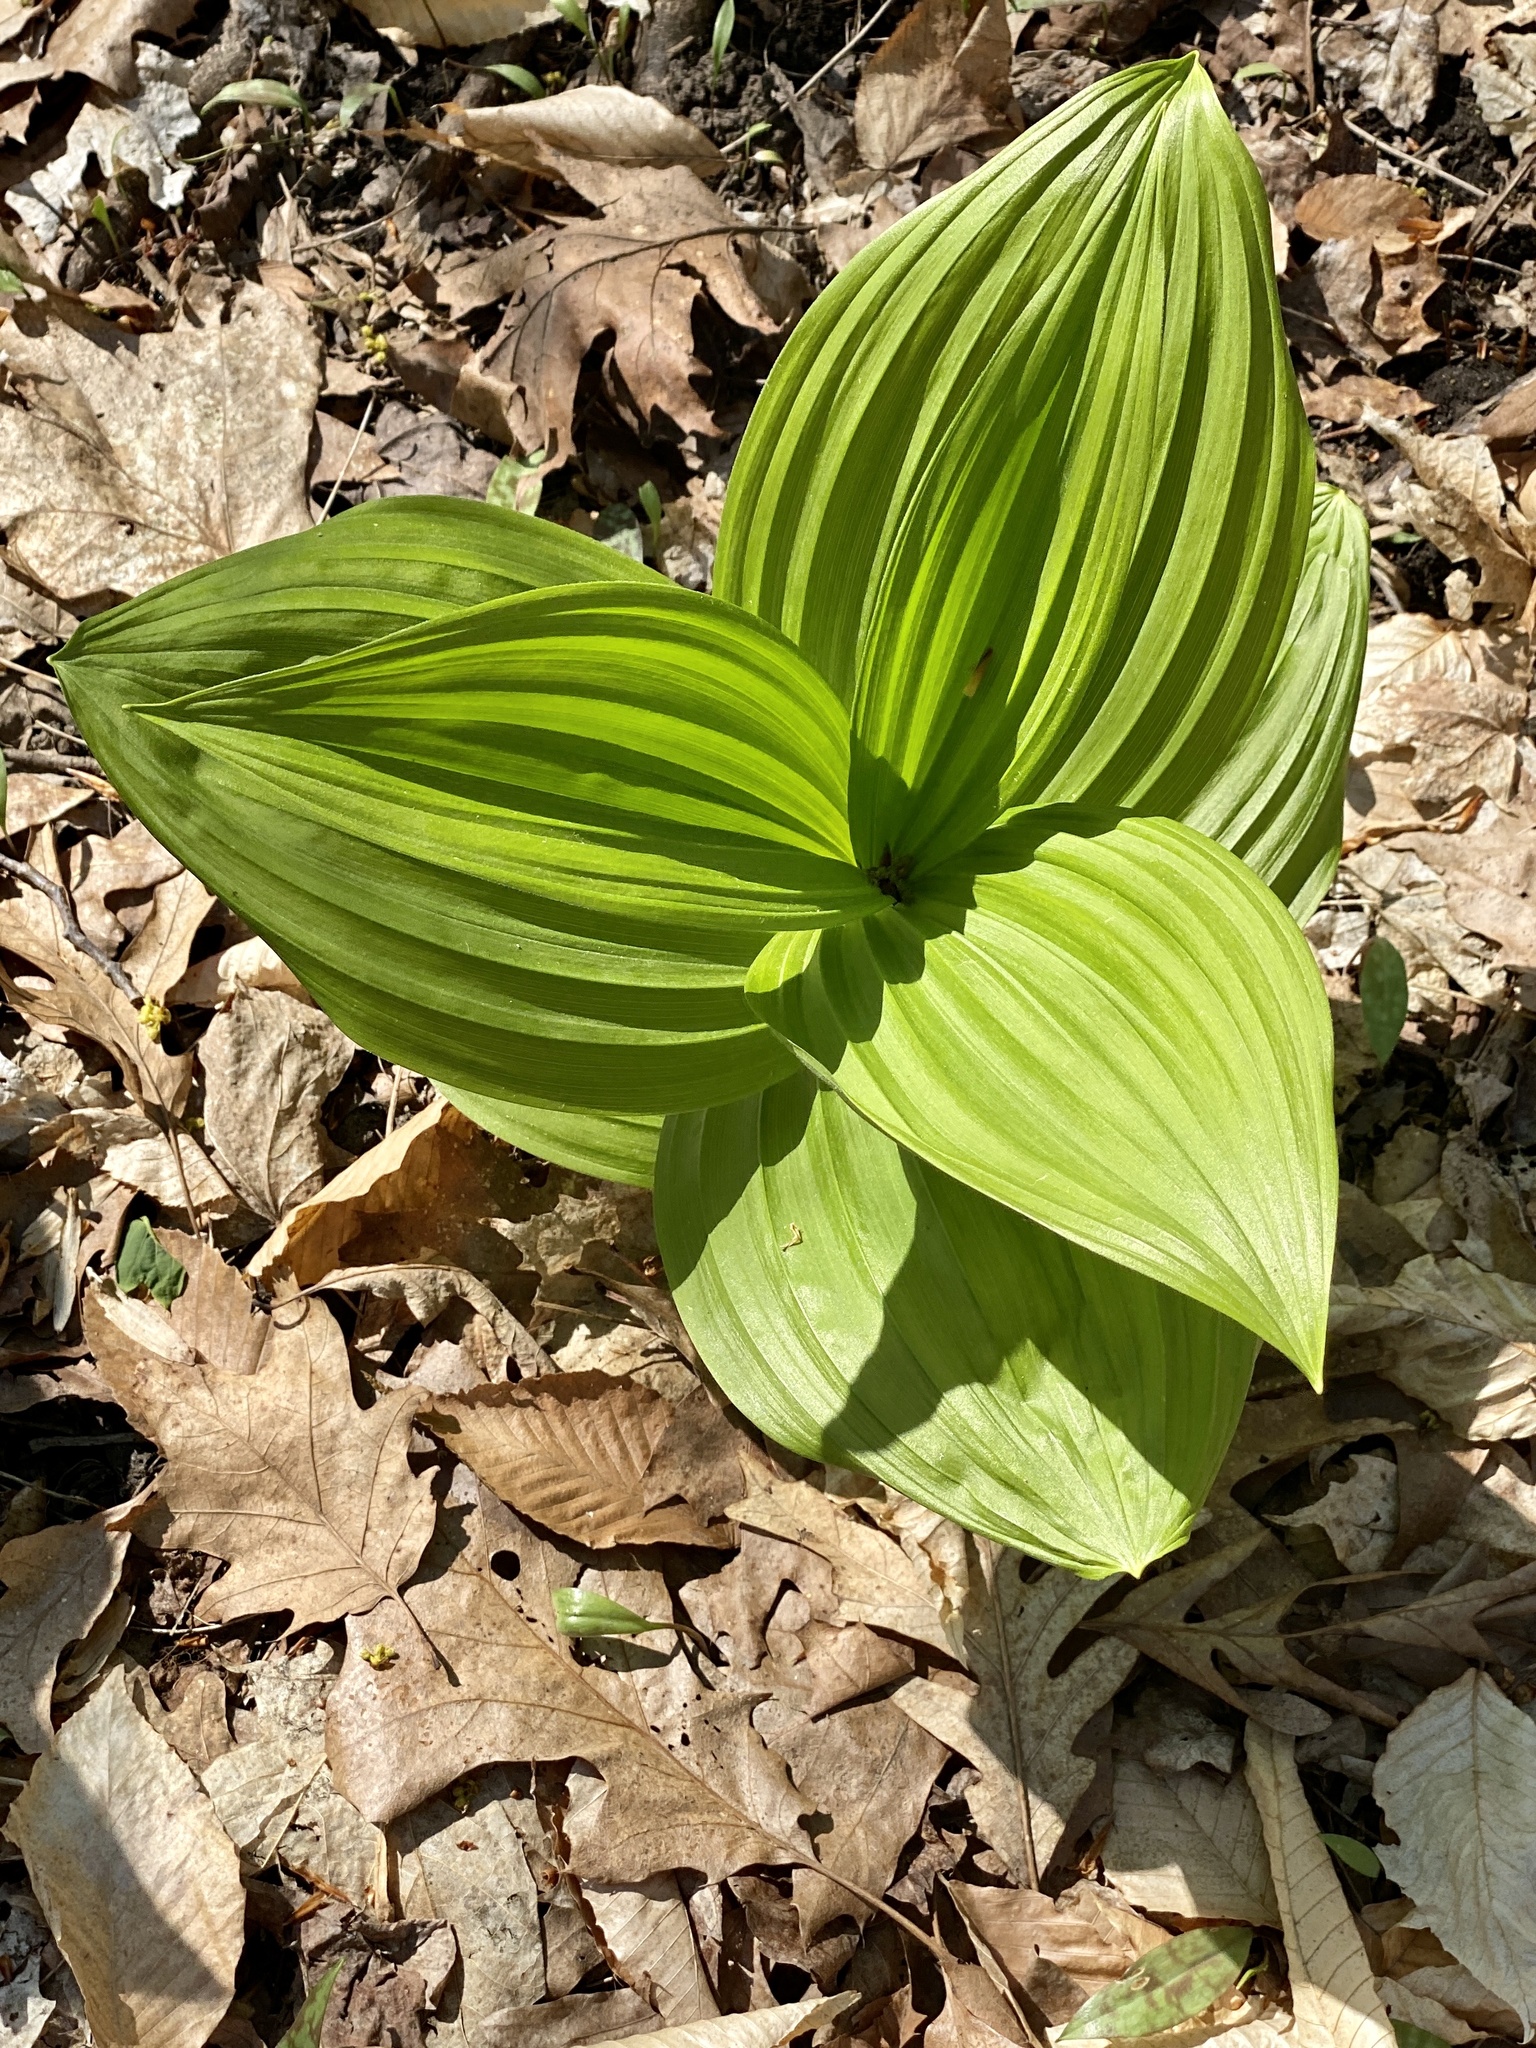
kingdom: Plantae
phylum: Tracheophyta
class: Liliopsida
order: Liliales
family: Melanthiaceae
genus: Veratrum
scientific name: Veratrum viride
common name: American false hellebore
